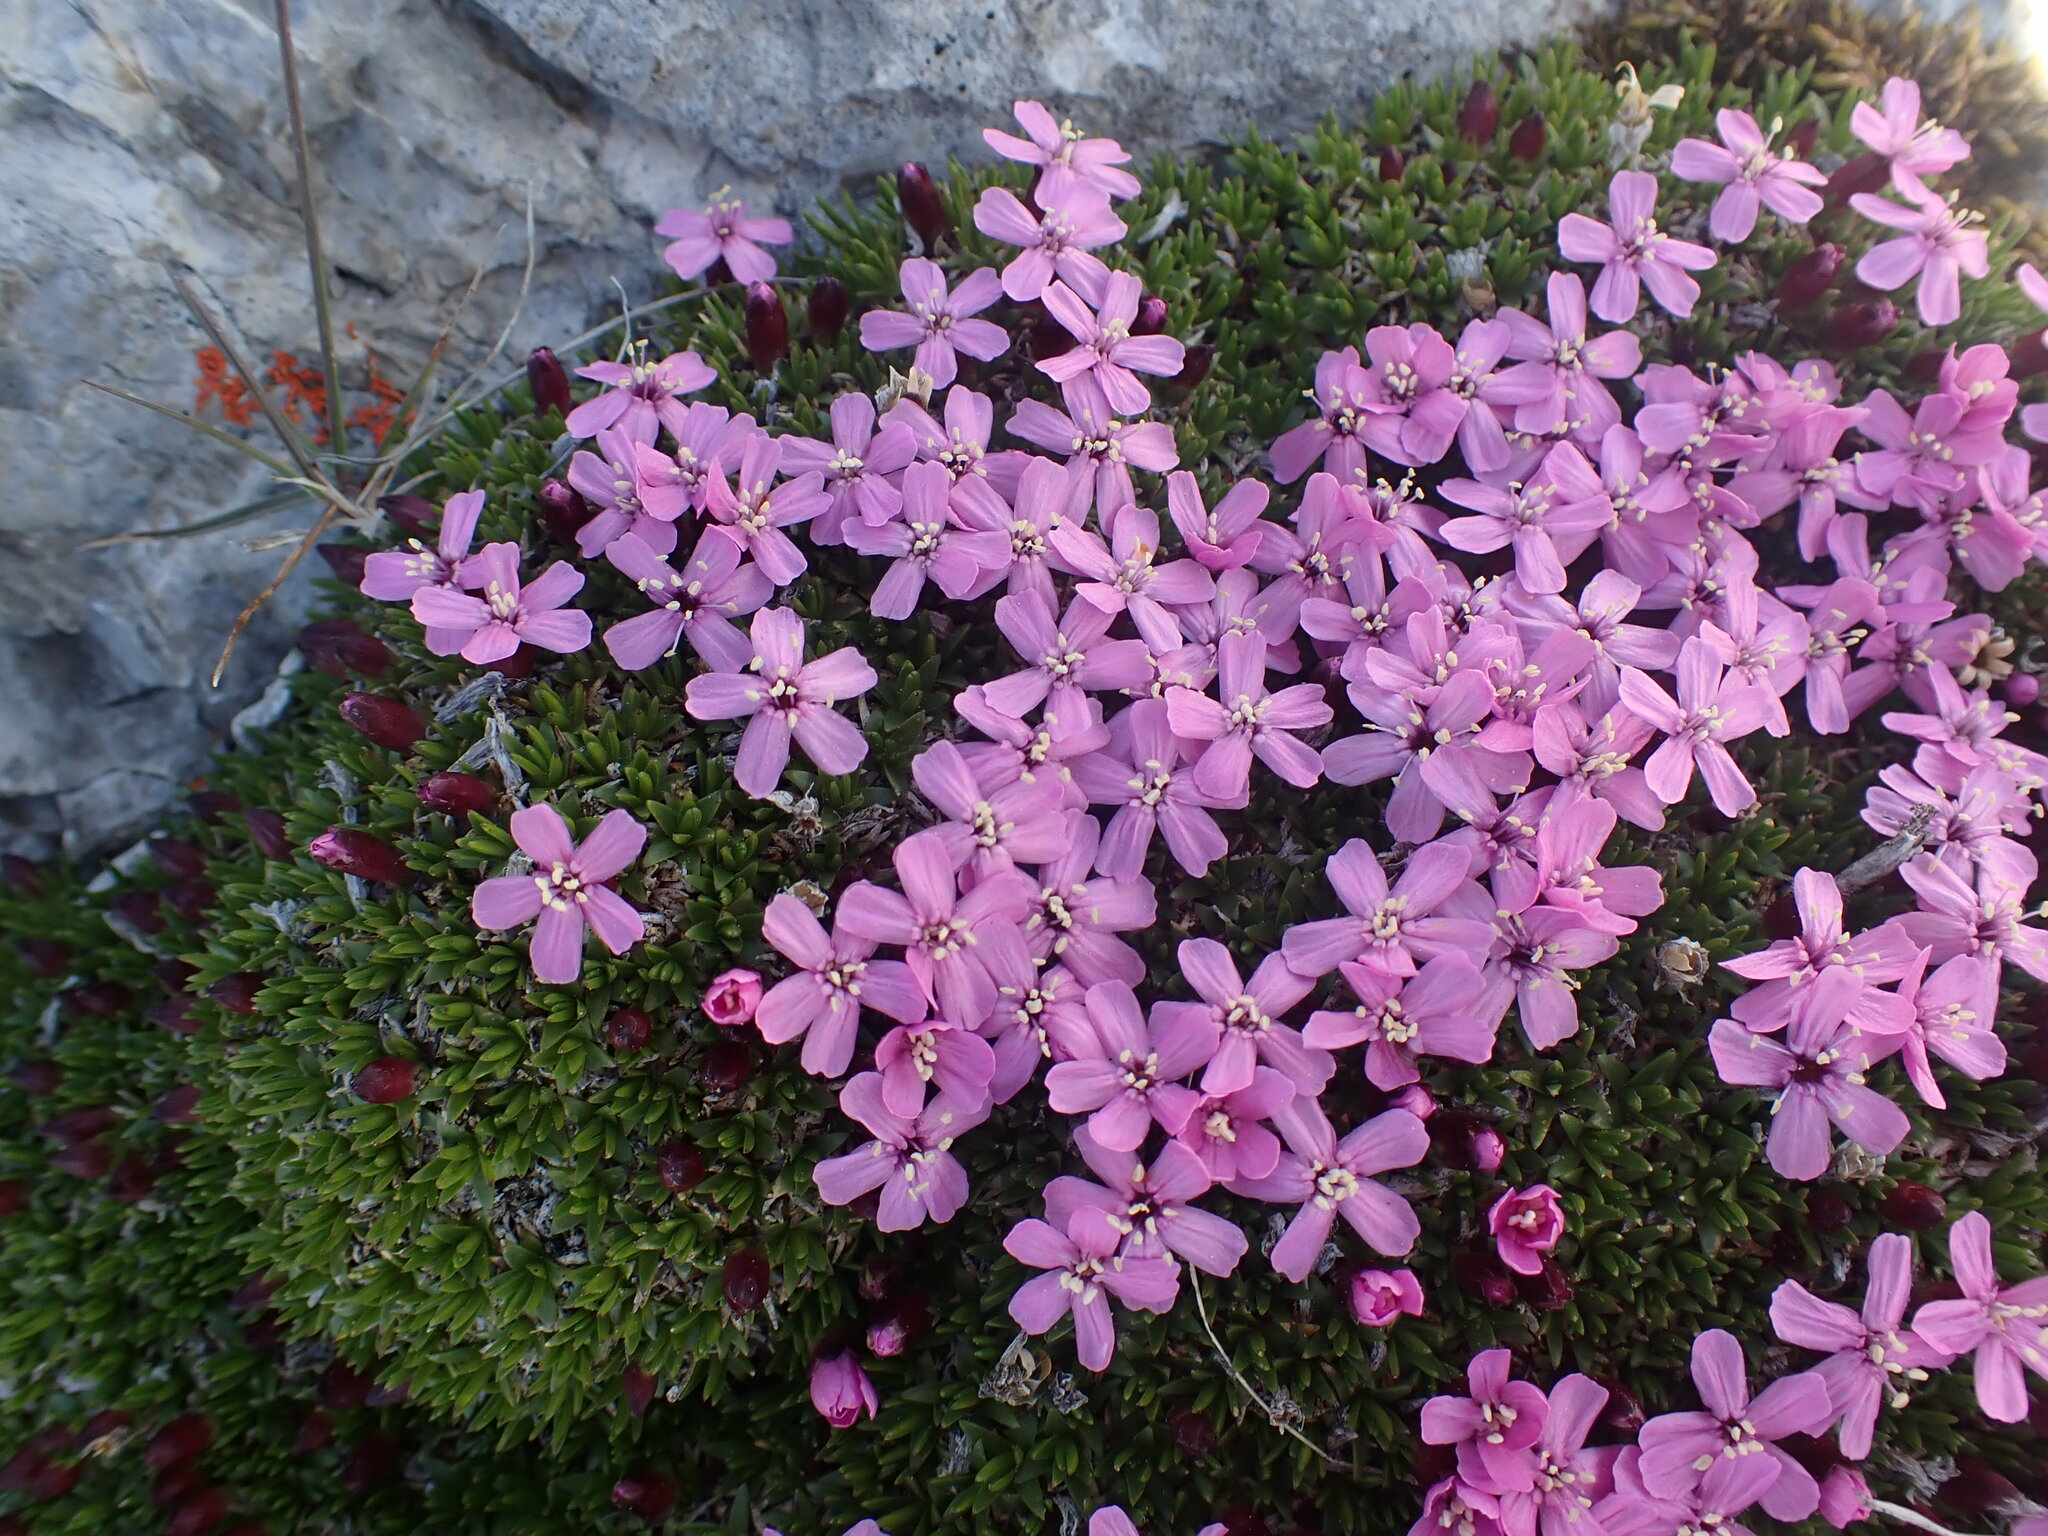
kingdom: Plantae
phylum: Tracheophyta
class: Magnoliopsida
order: Caryophyllales
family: Caryophyllaceae
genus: Silene
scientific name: Silene acaulis
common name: Moss campion
